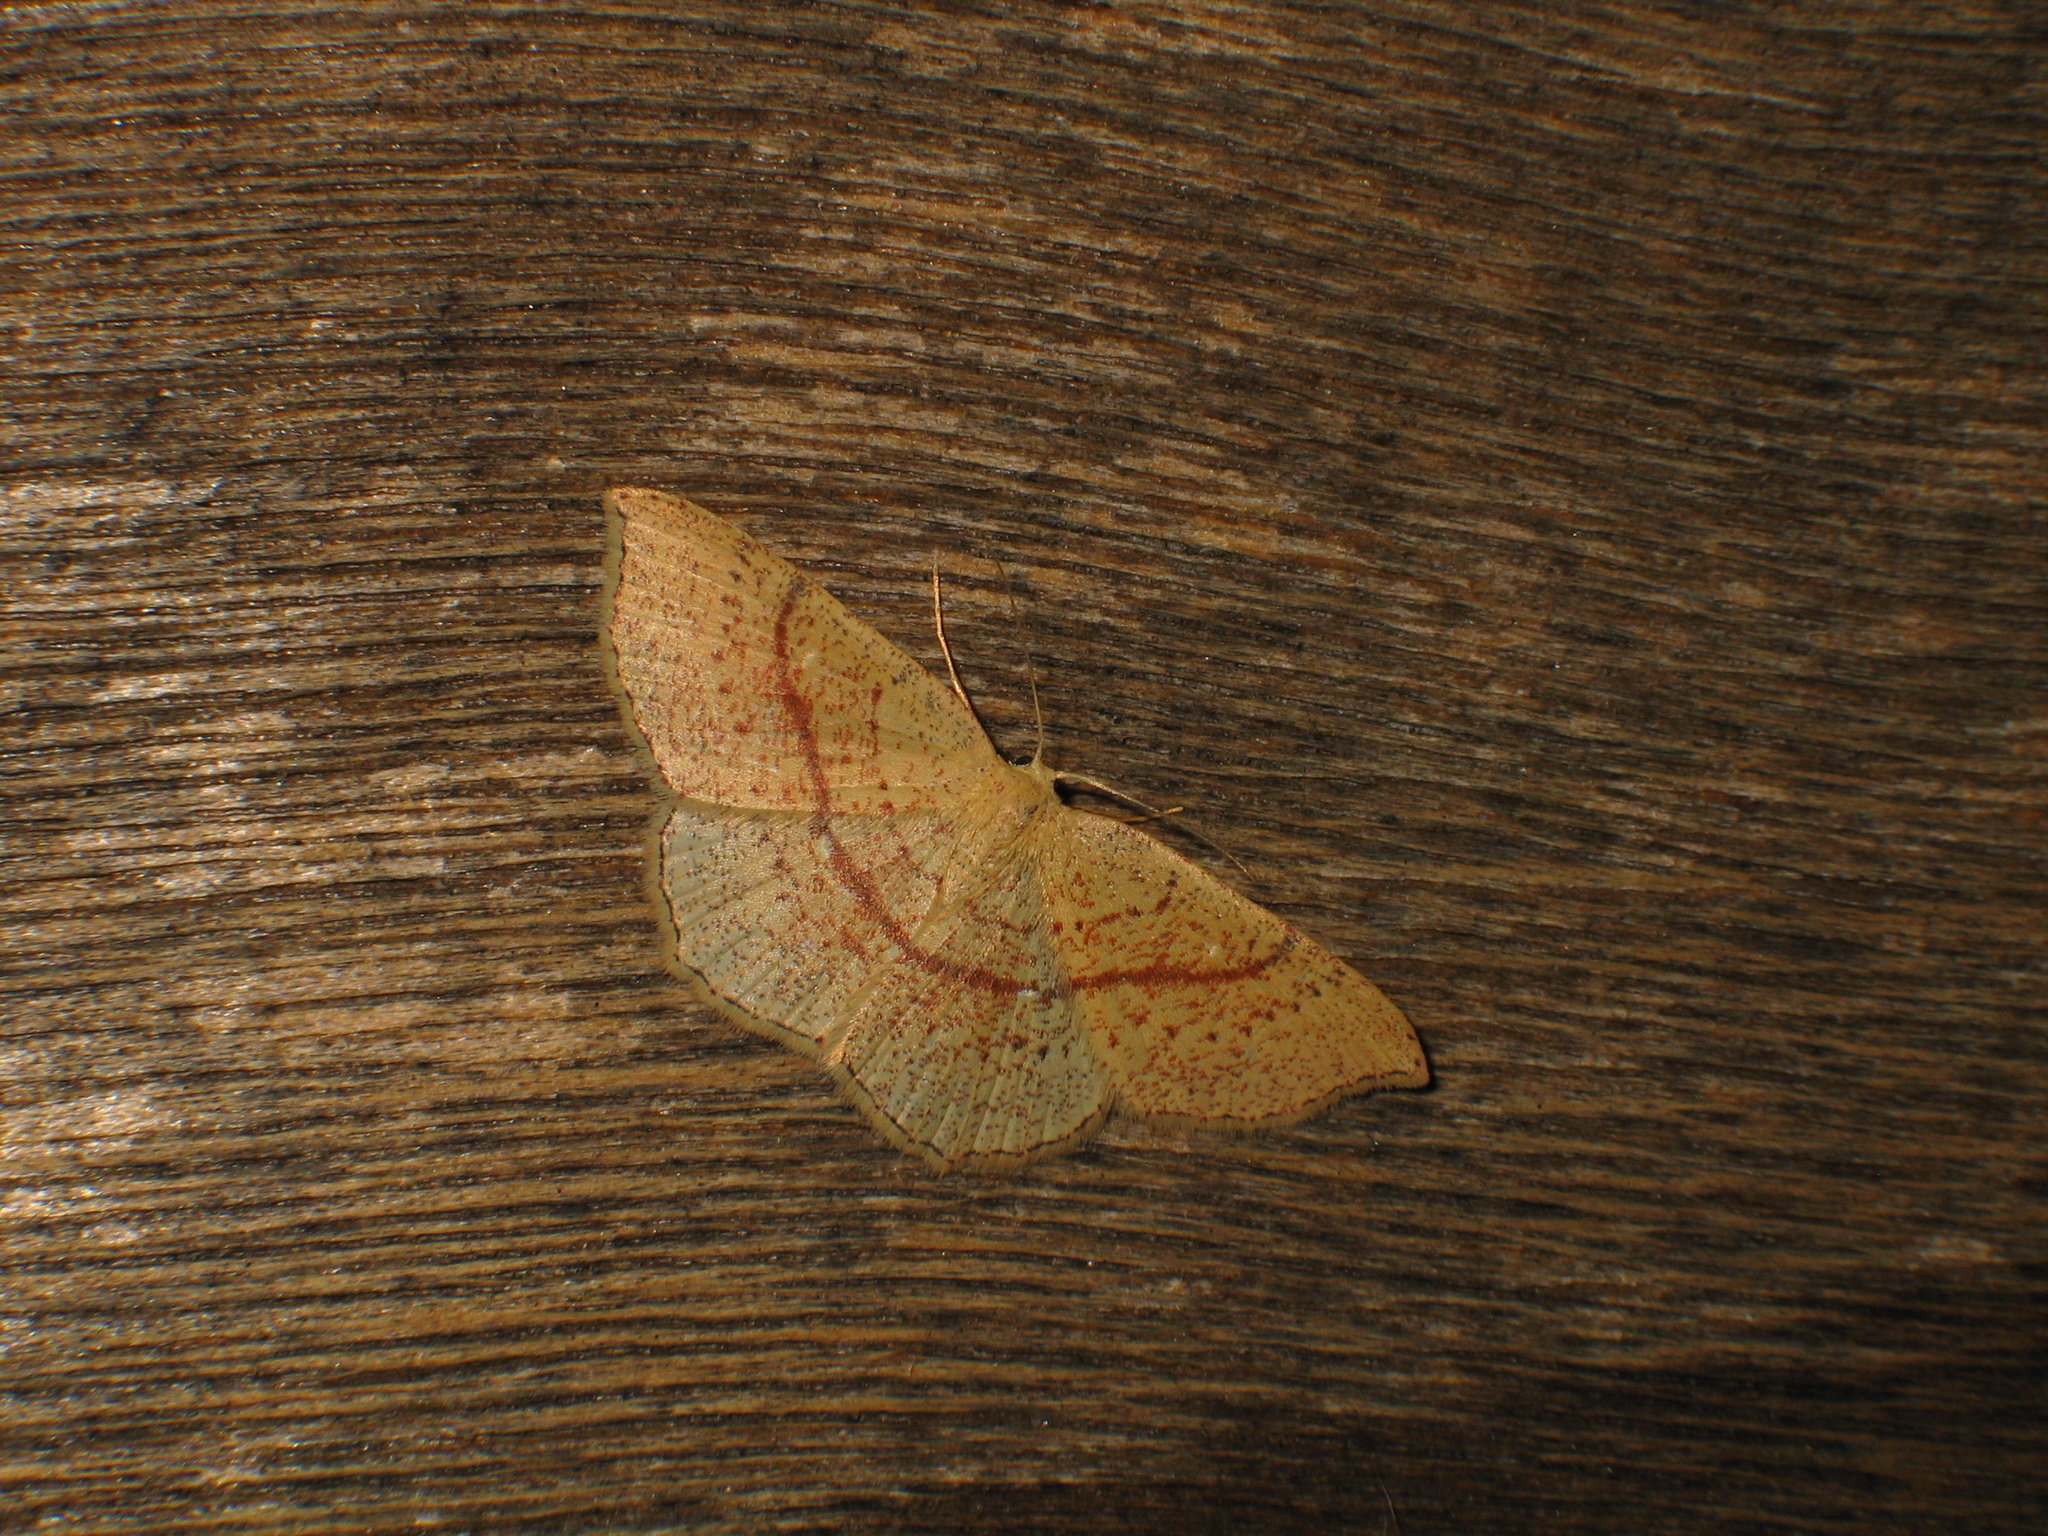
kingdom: Animalia
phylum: Arthropoda
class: Insecta
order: Lepidoptera
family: Geometridae
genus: Cyclophora
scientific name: Cyclophora punctaria
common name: Maiden's blush
